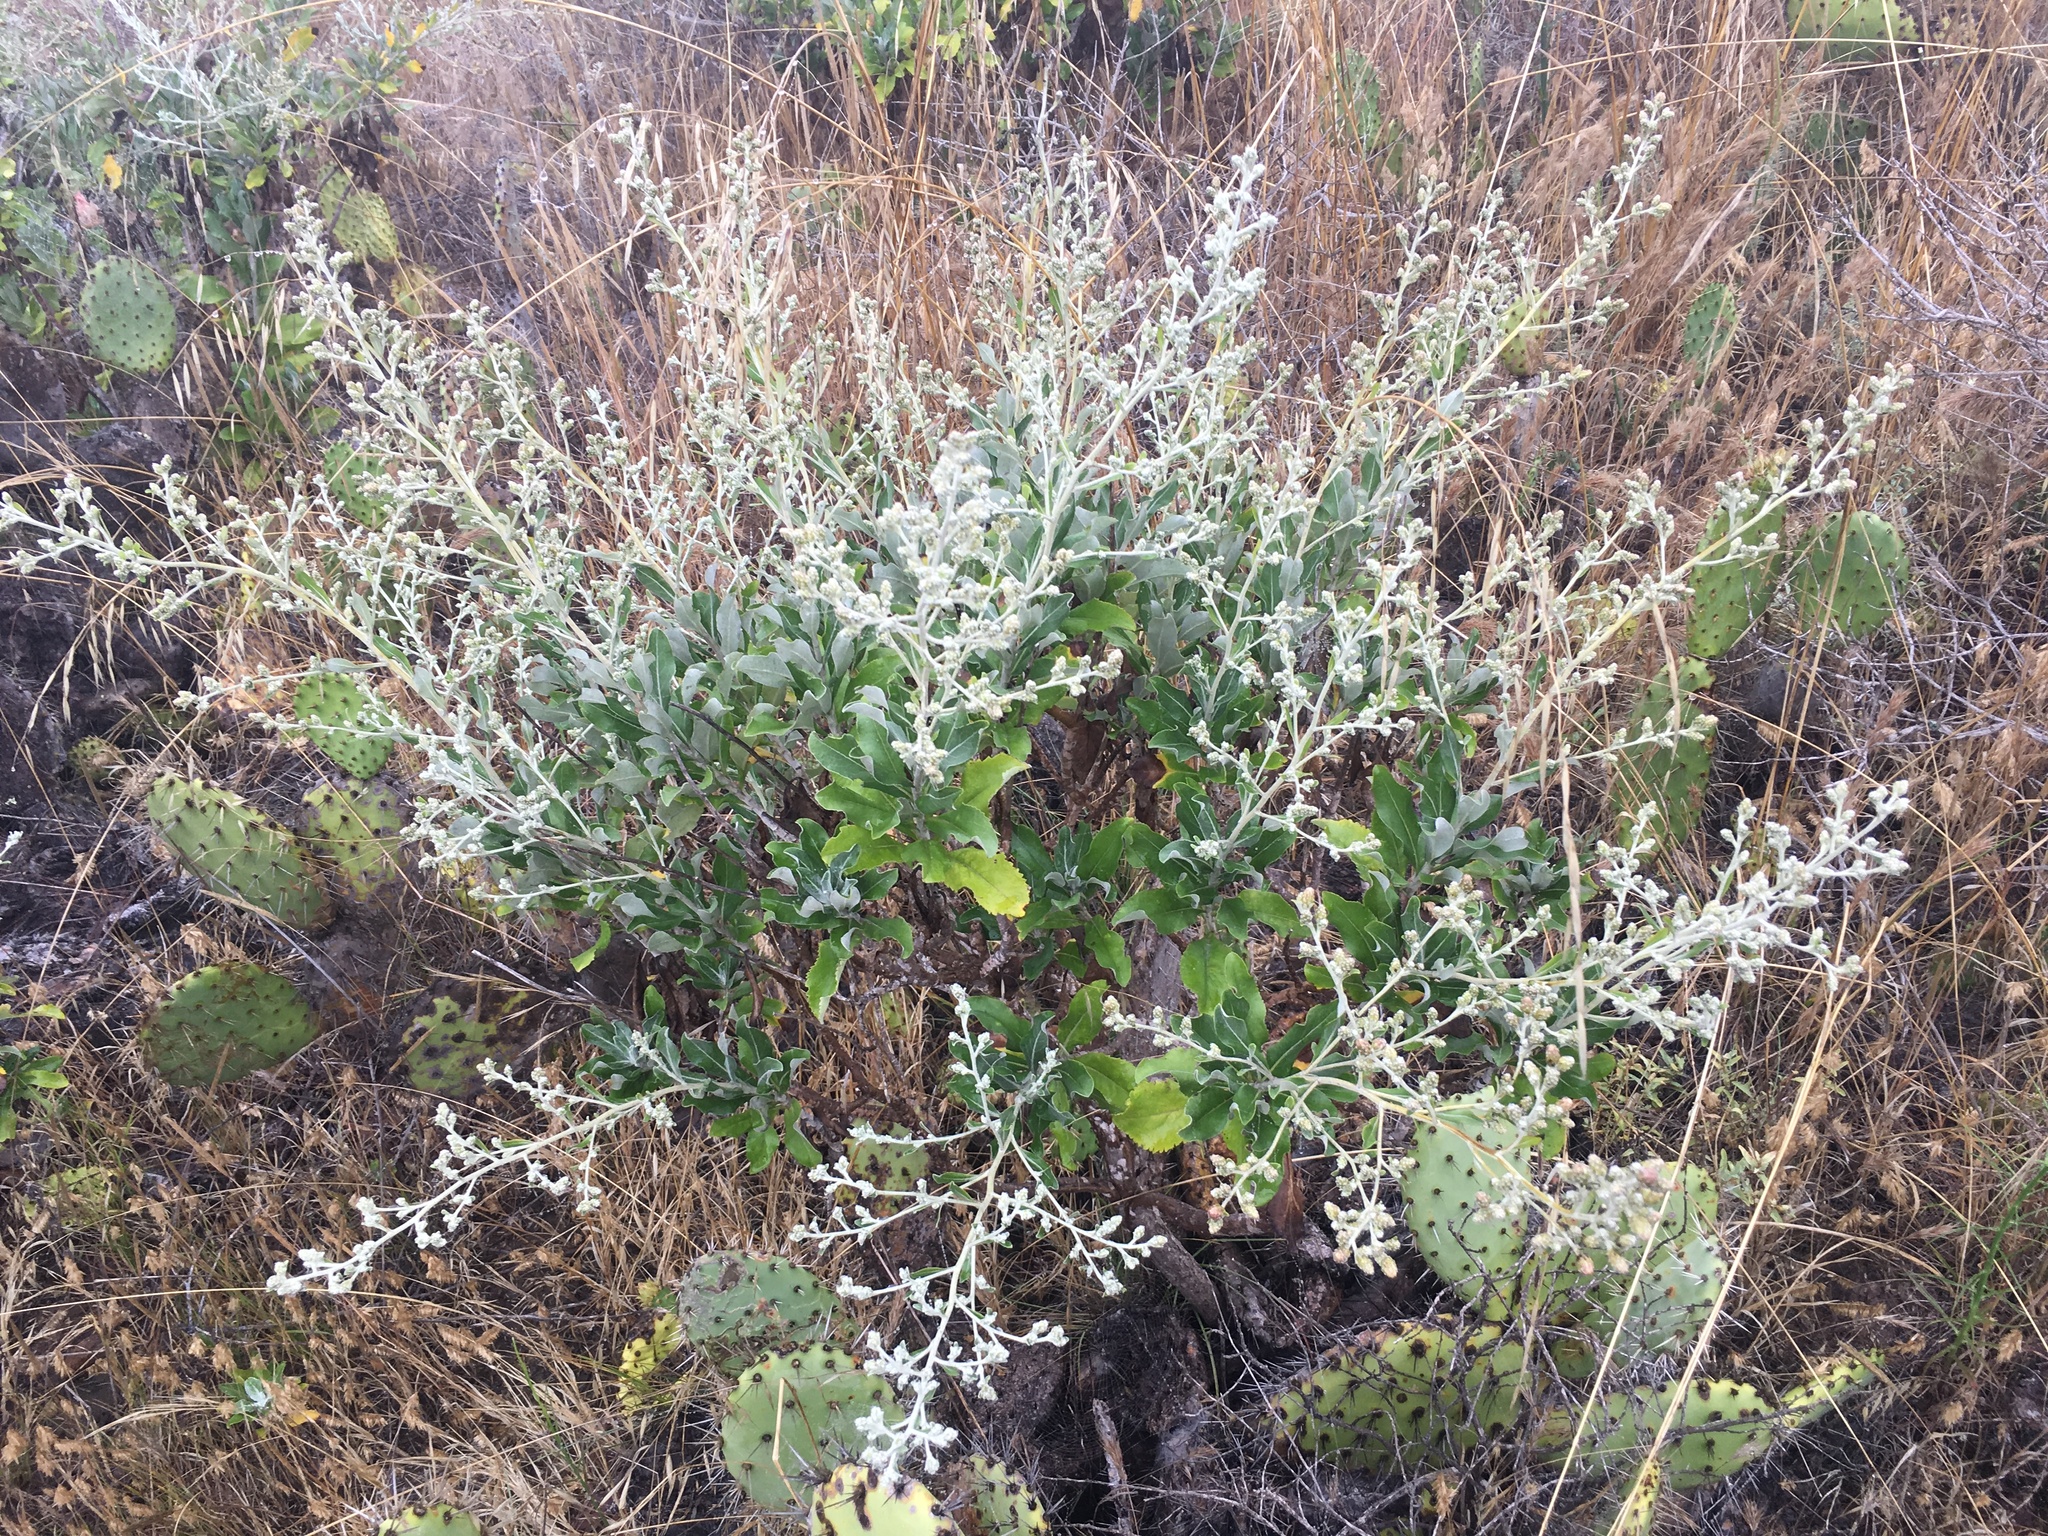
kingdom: Plantae
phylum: Tracheophyta
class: Magnoliopsida
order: Asterales
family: Asteraceae
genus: Hazardia
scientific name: Hazardia cana
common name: San clemente island bristleweed
